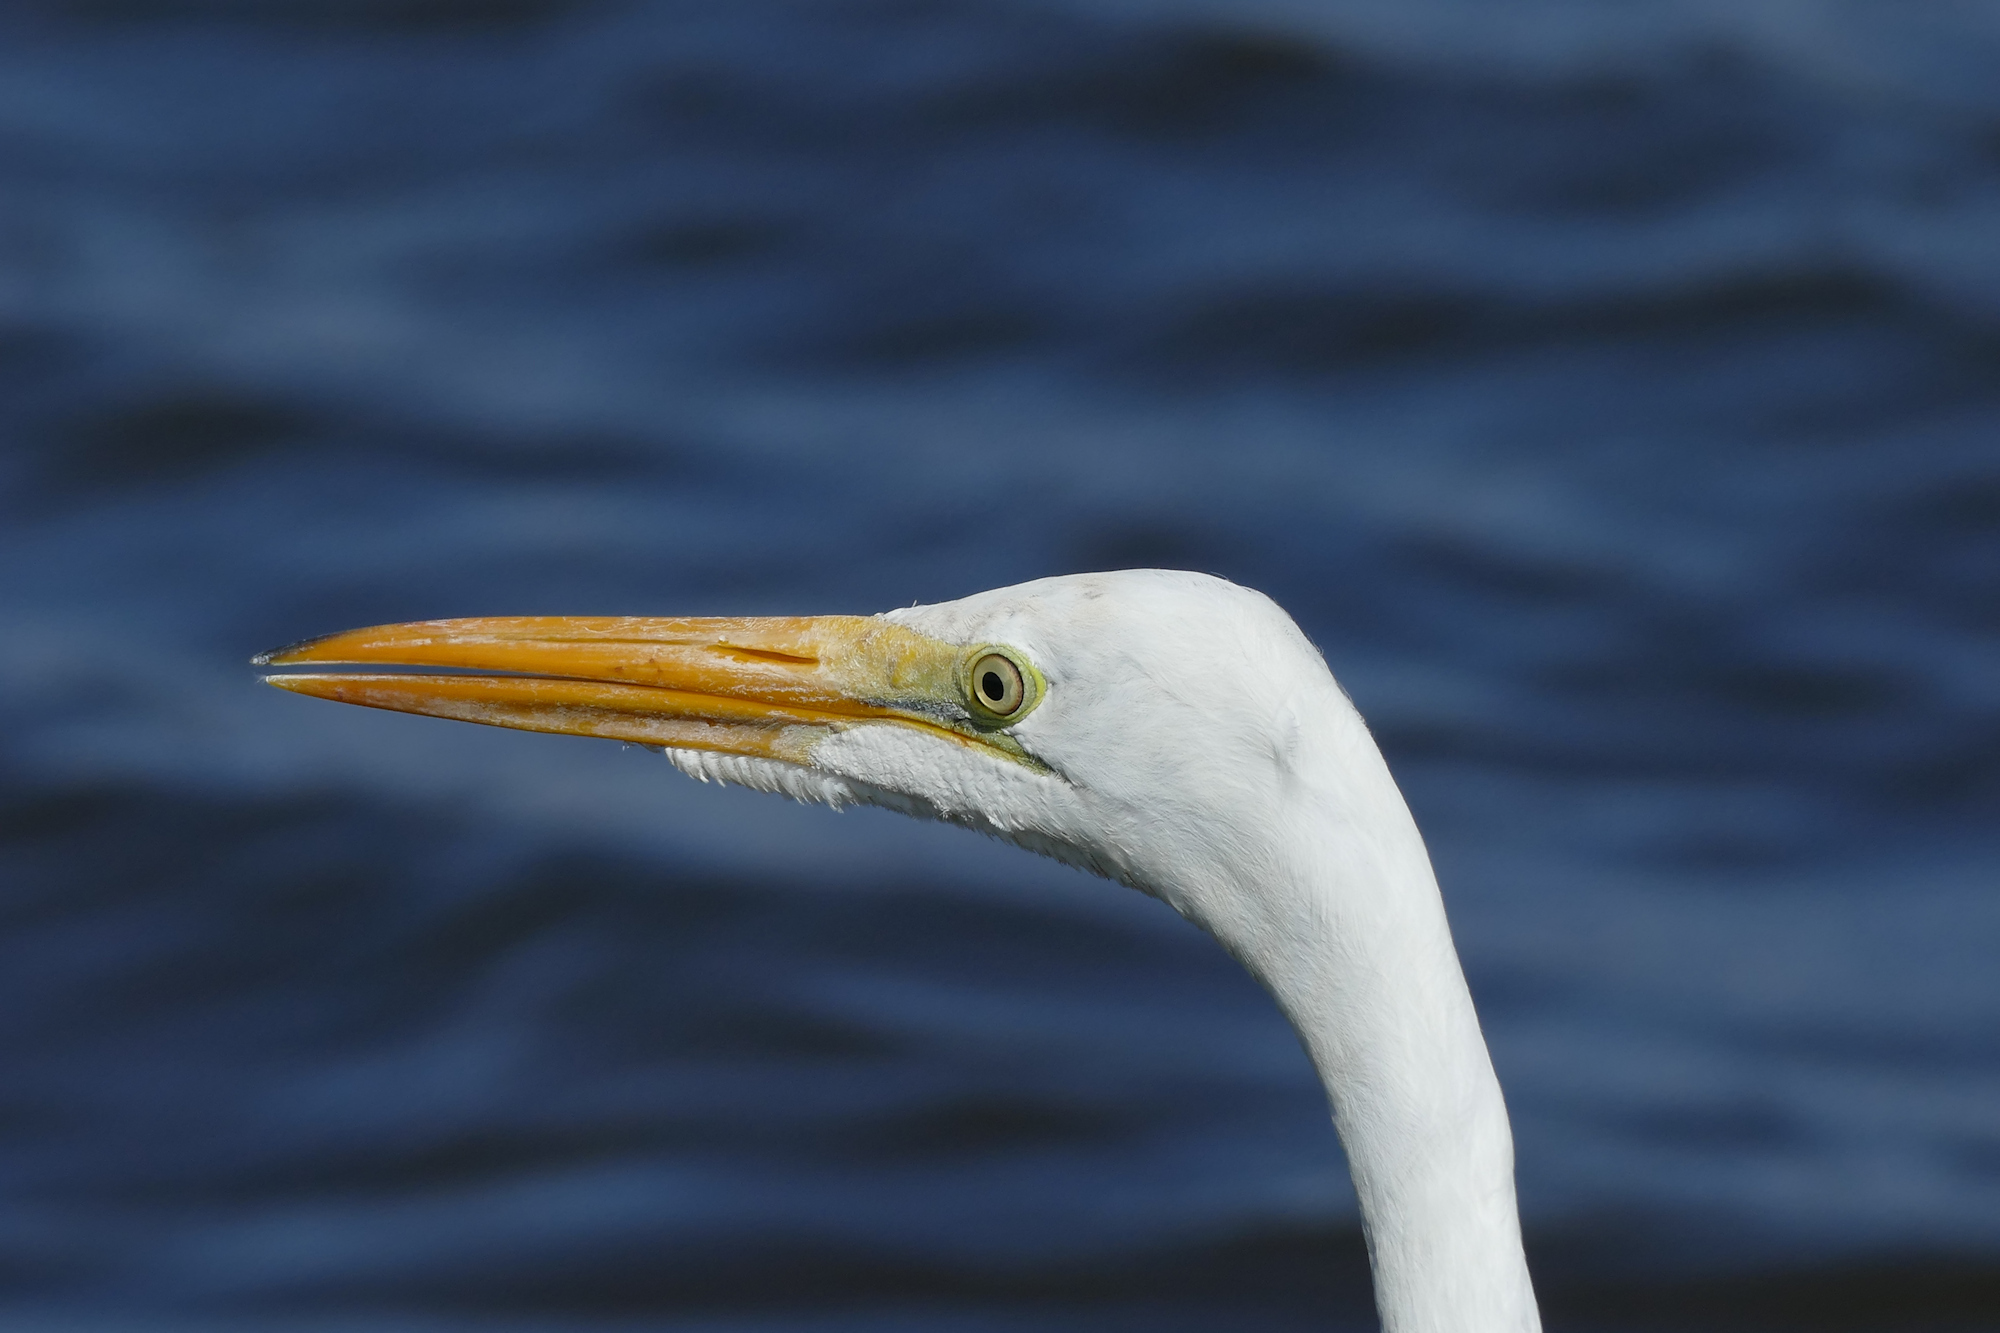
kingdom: Animalia
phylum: Chordata
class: Aves
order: Pelecaniformes
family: Ardeidae
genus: Ardea
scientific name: Ardea alba
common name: Great egret
